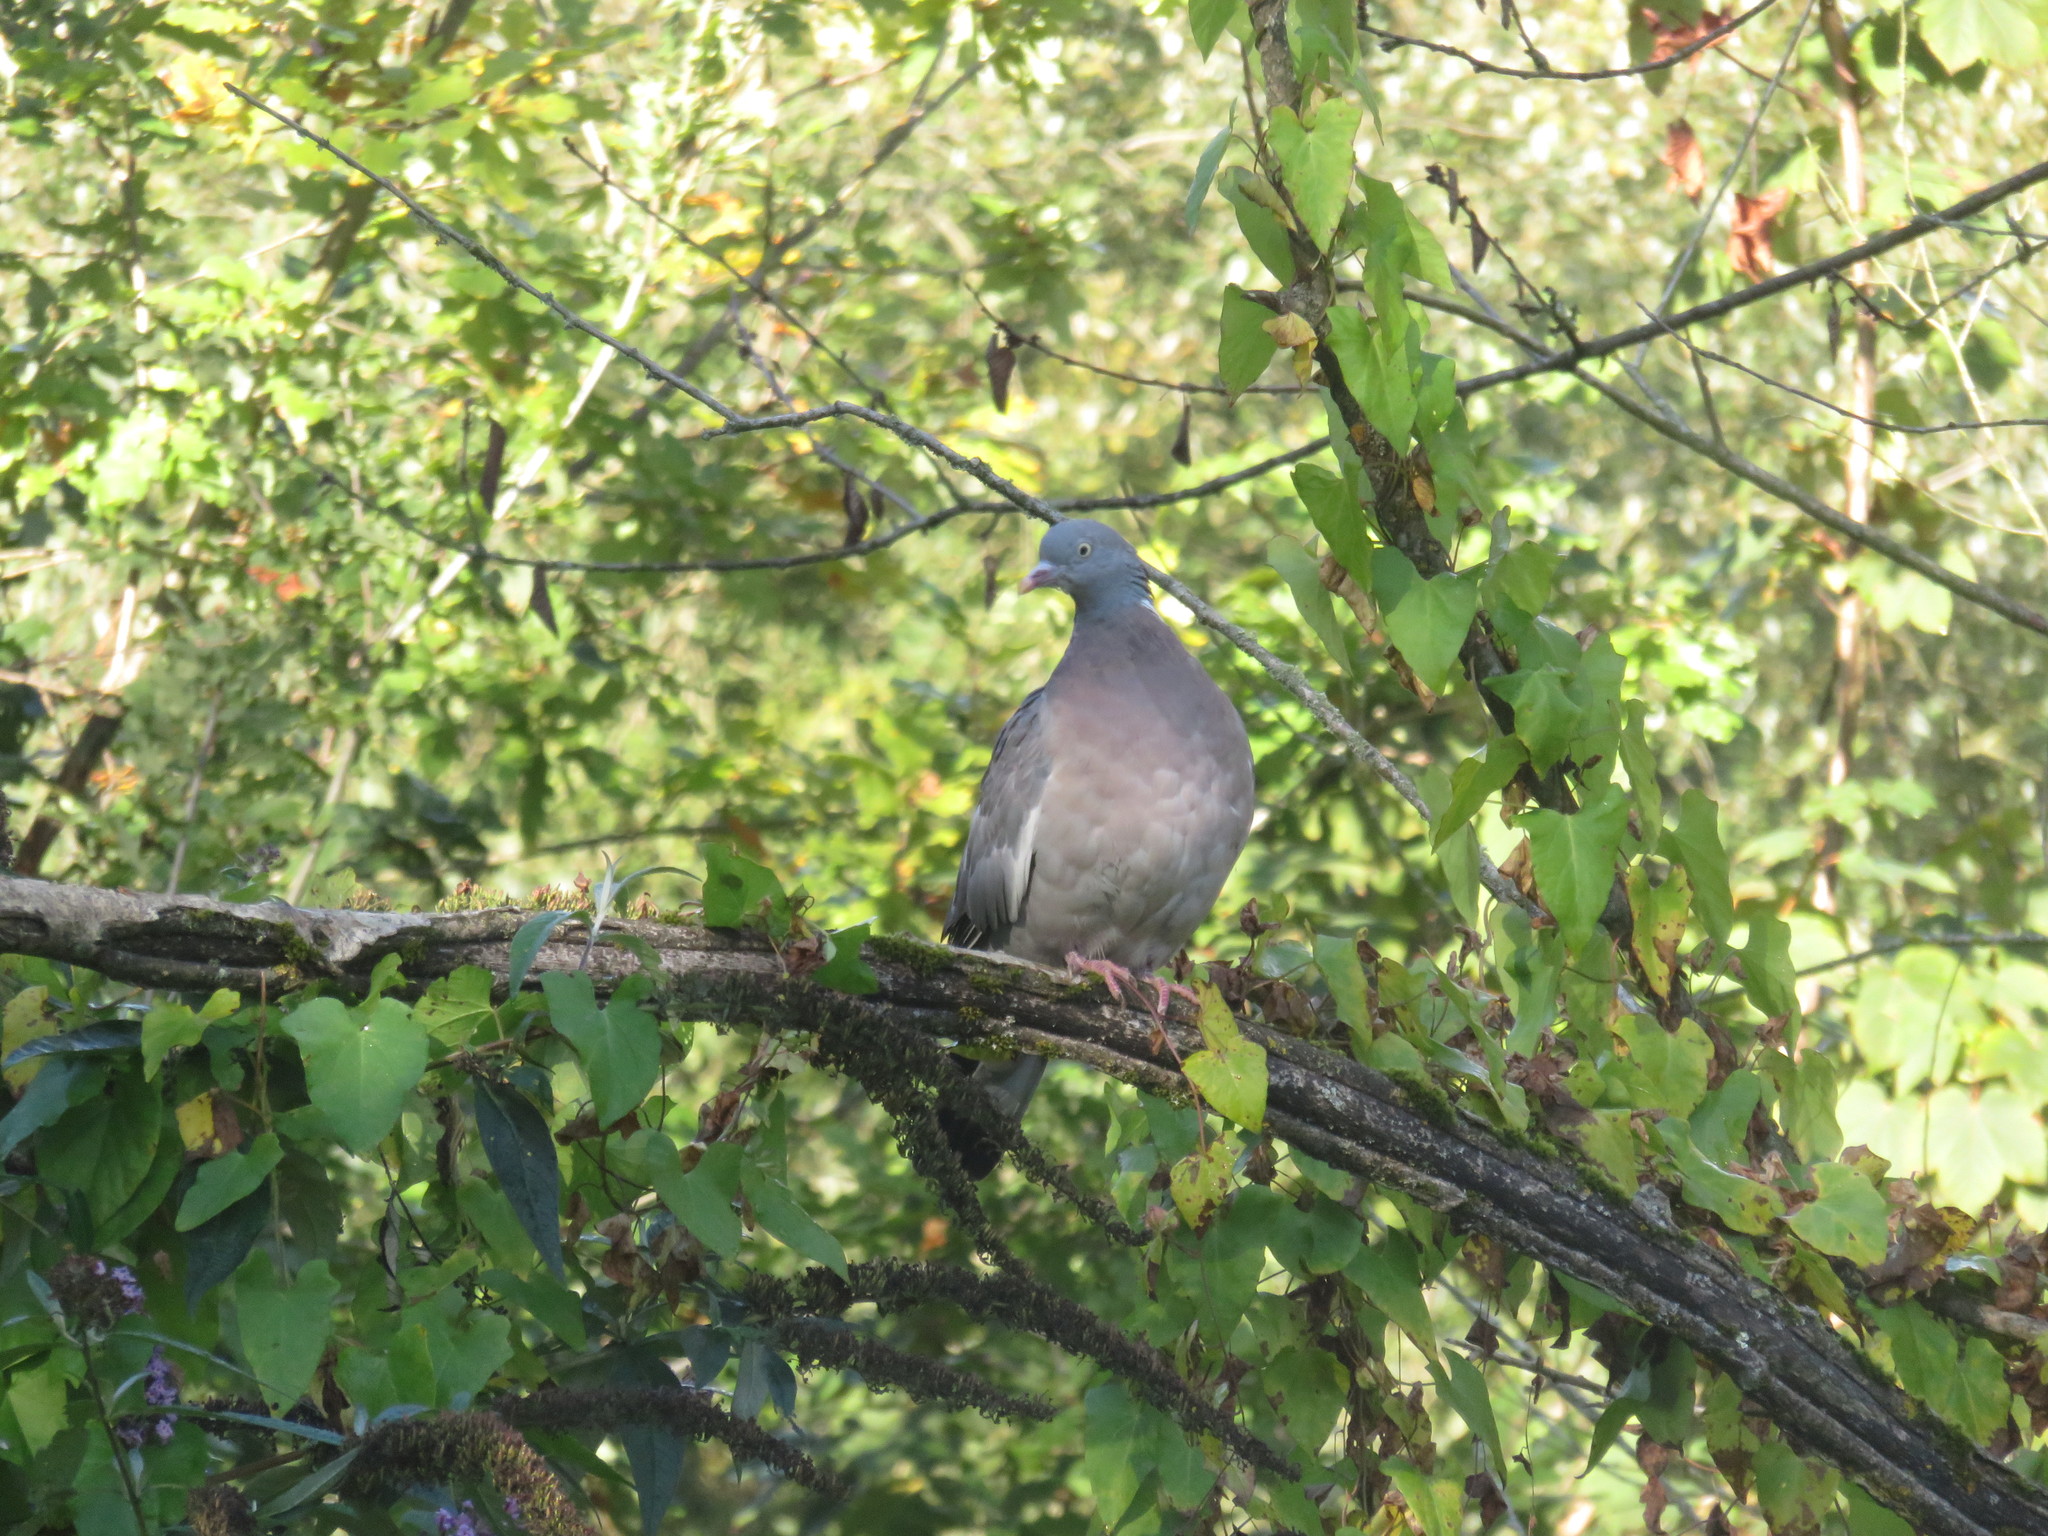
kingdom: Animalia
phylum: Chordata
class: Aves
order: Columbiformes
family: Columbidae
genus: Columba
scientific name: Columba palumbus
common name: Common wood pigeon
